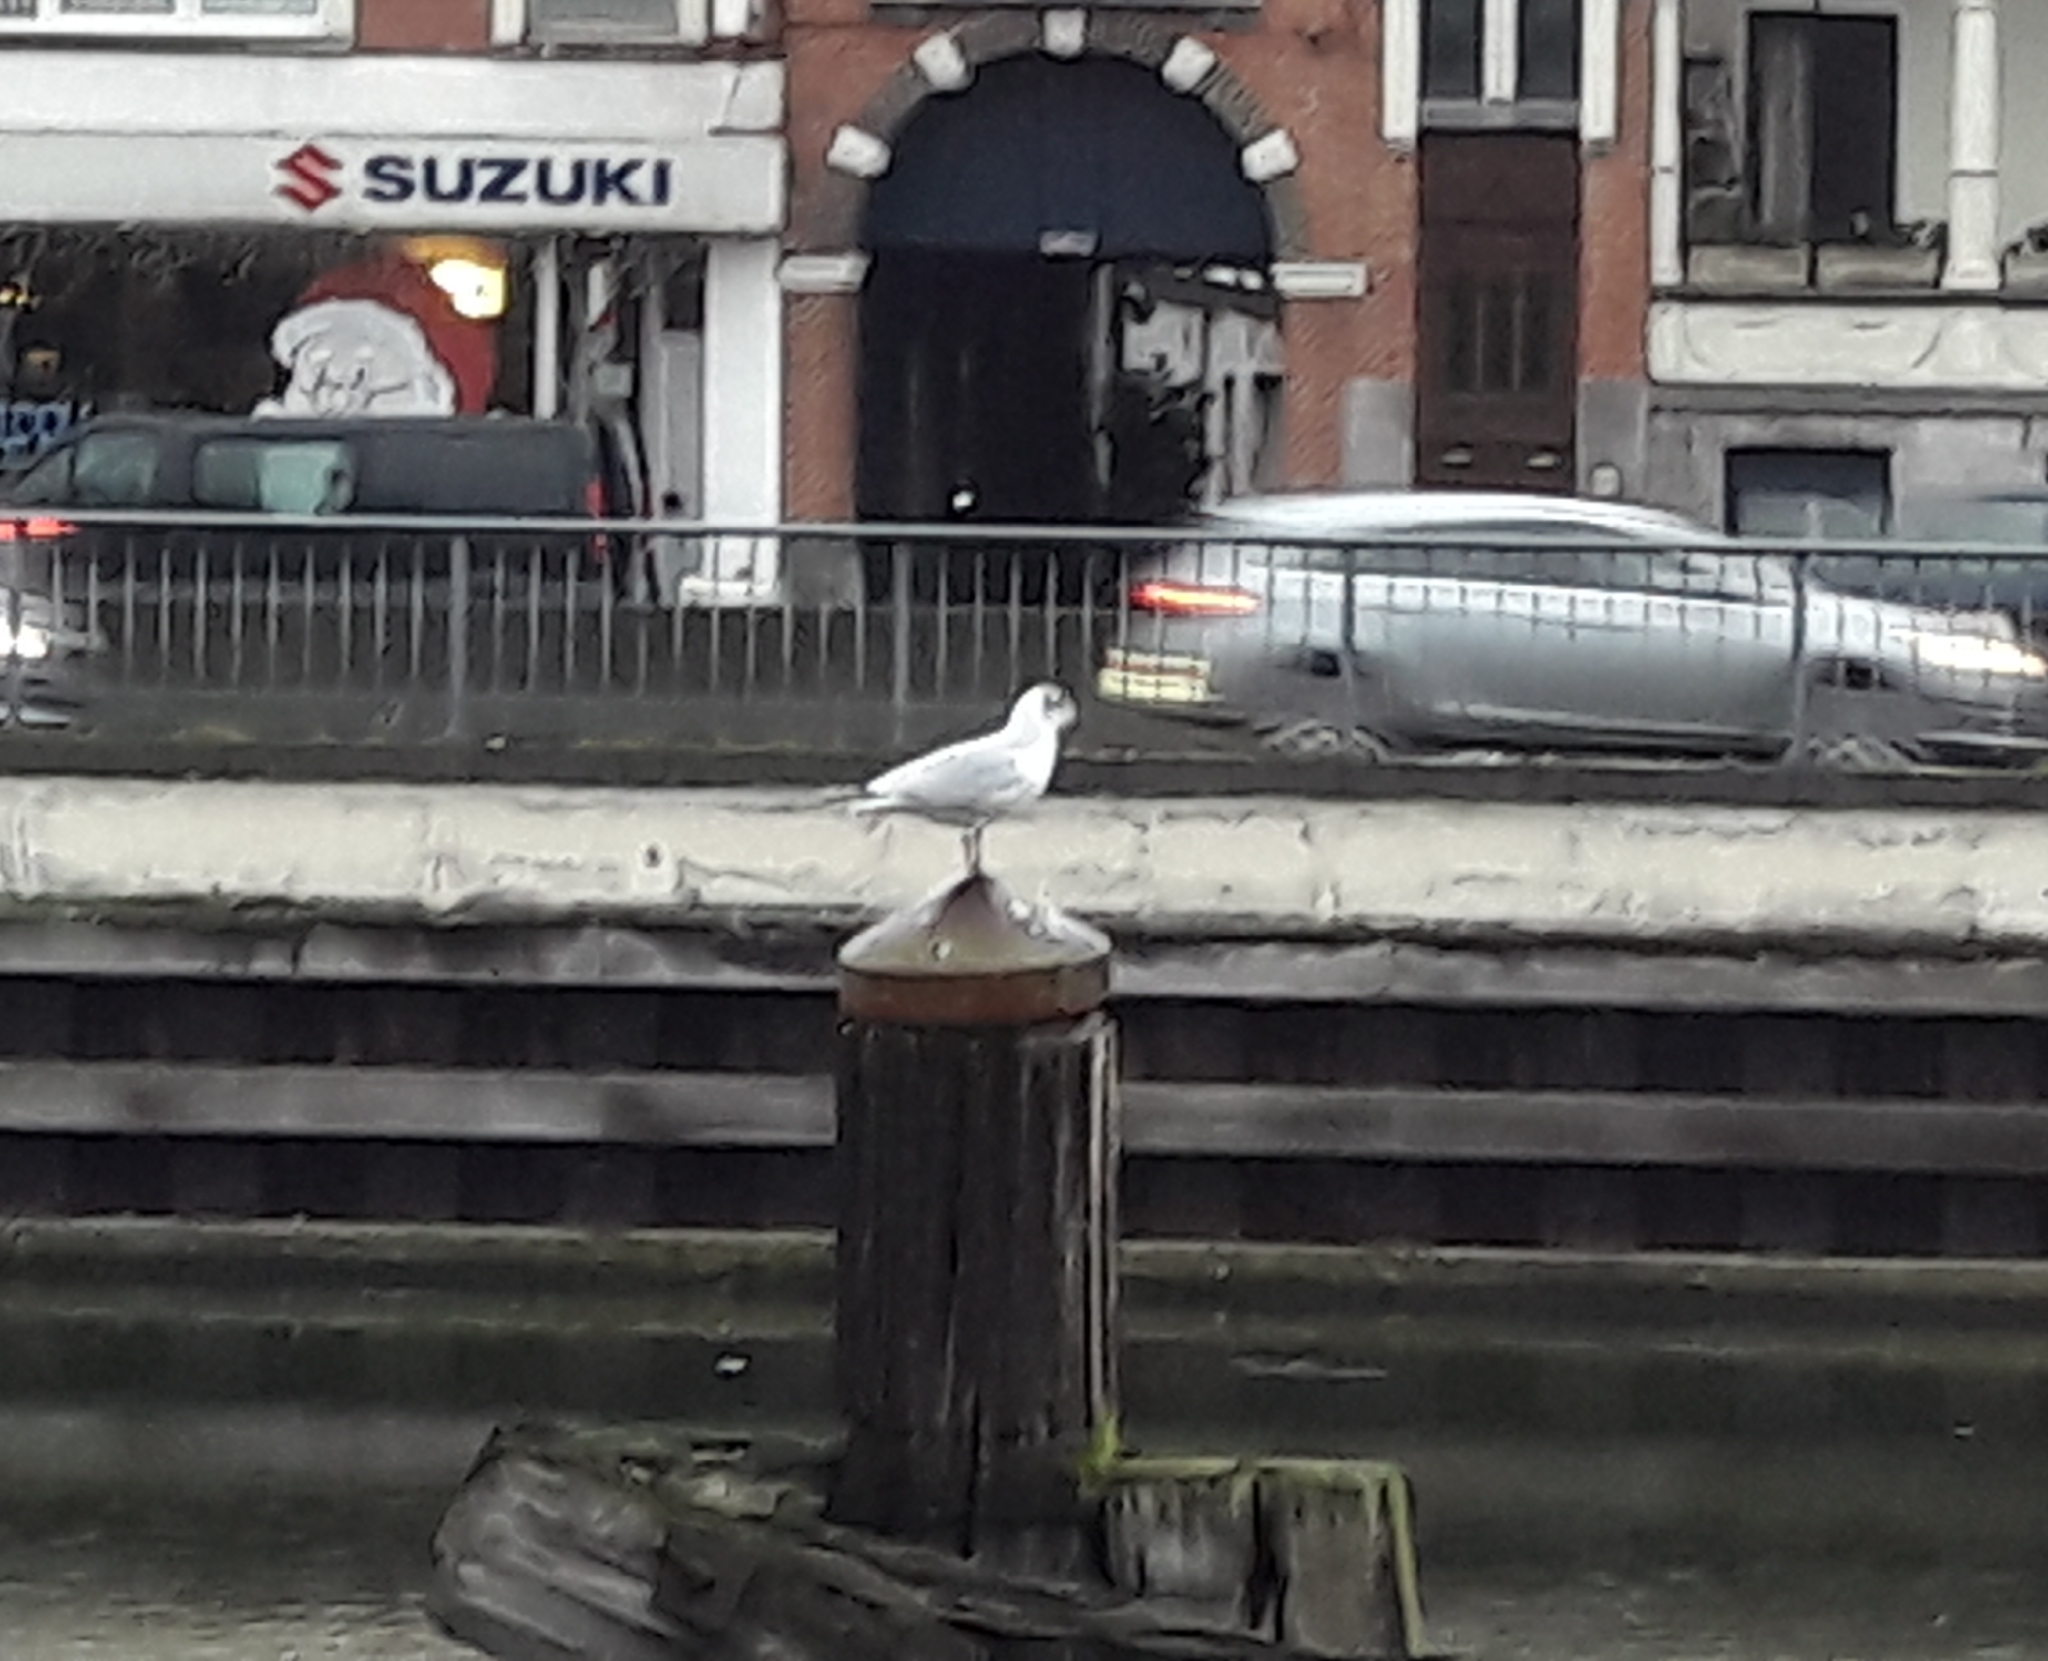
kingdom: Animalia
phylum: Chordata
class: Aves
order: Charadriiformes
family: Laridae
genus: Chroicocephalus
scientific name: Chroicocephalus ridibundus
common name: Black-headed gull
